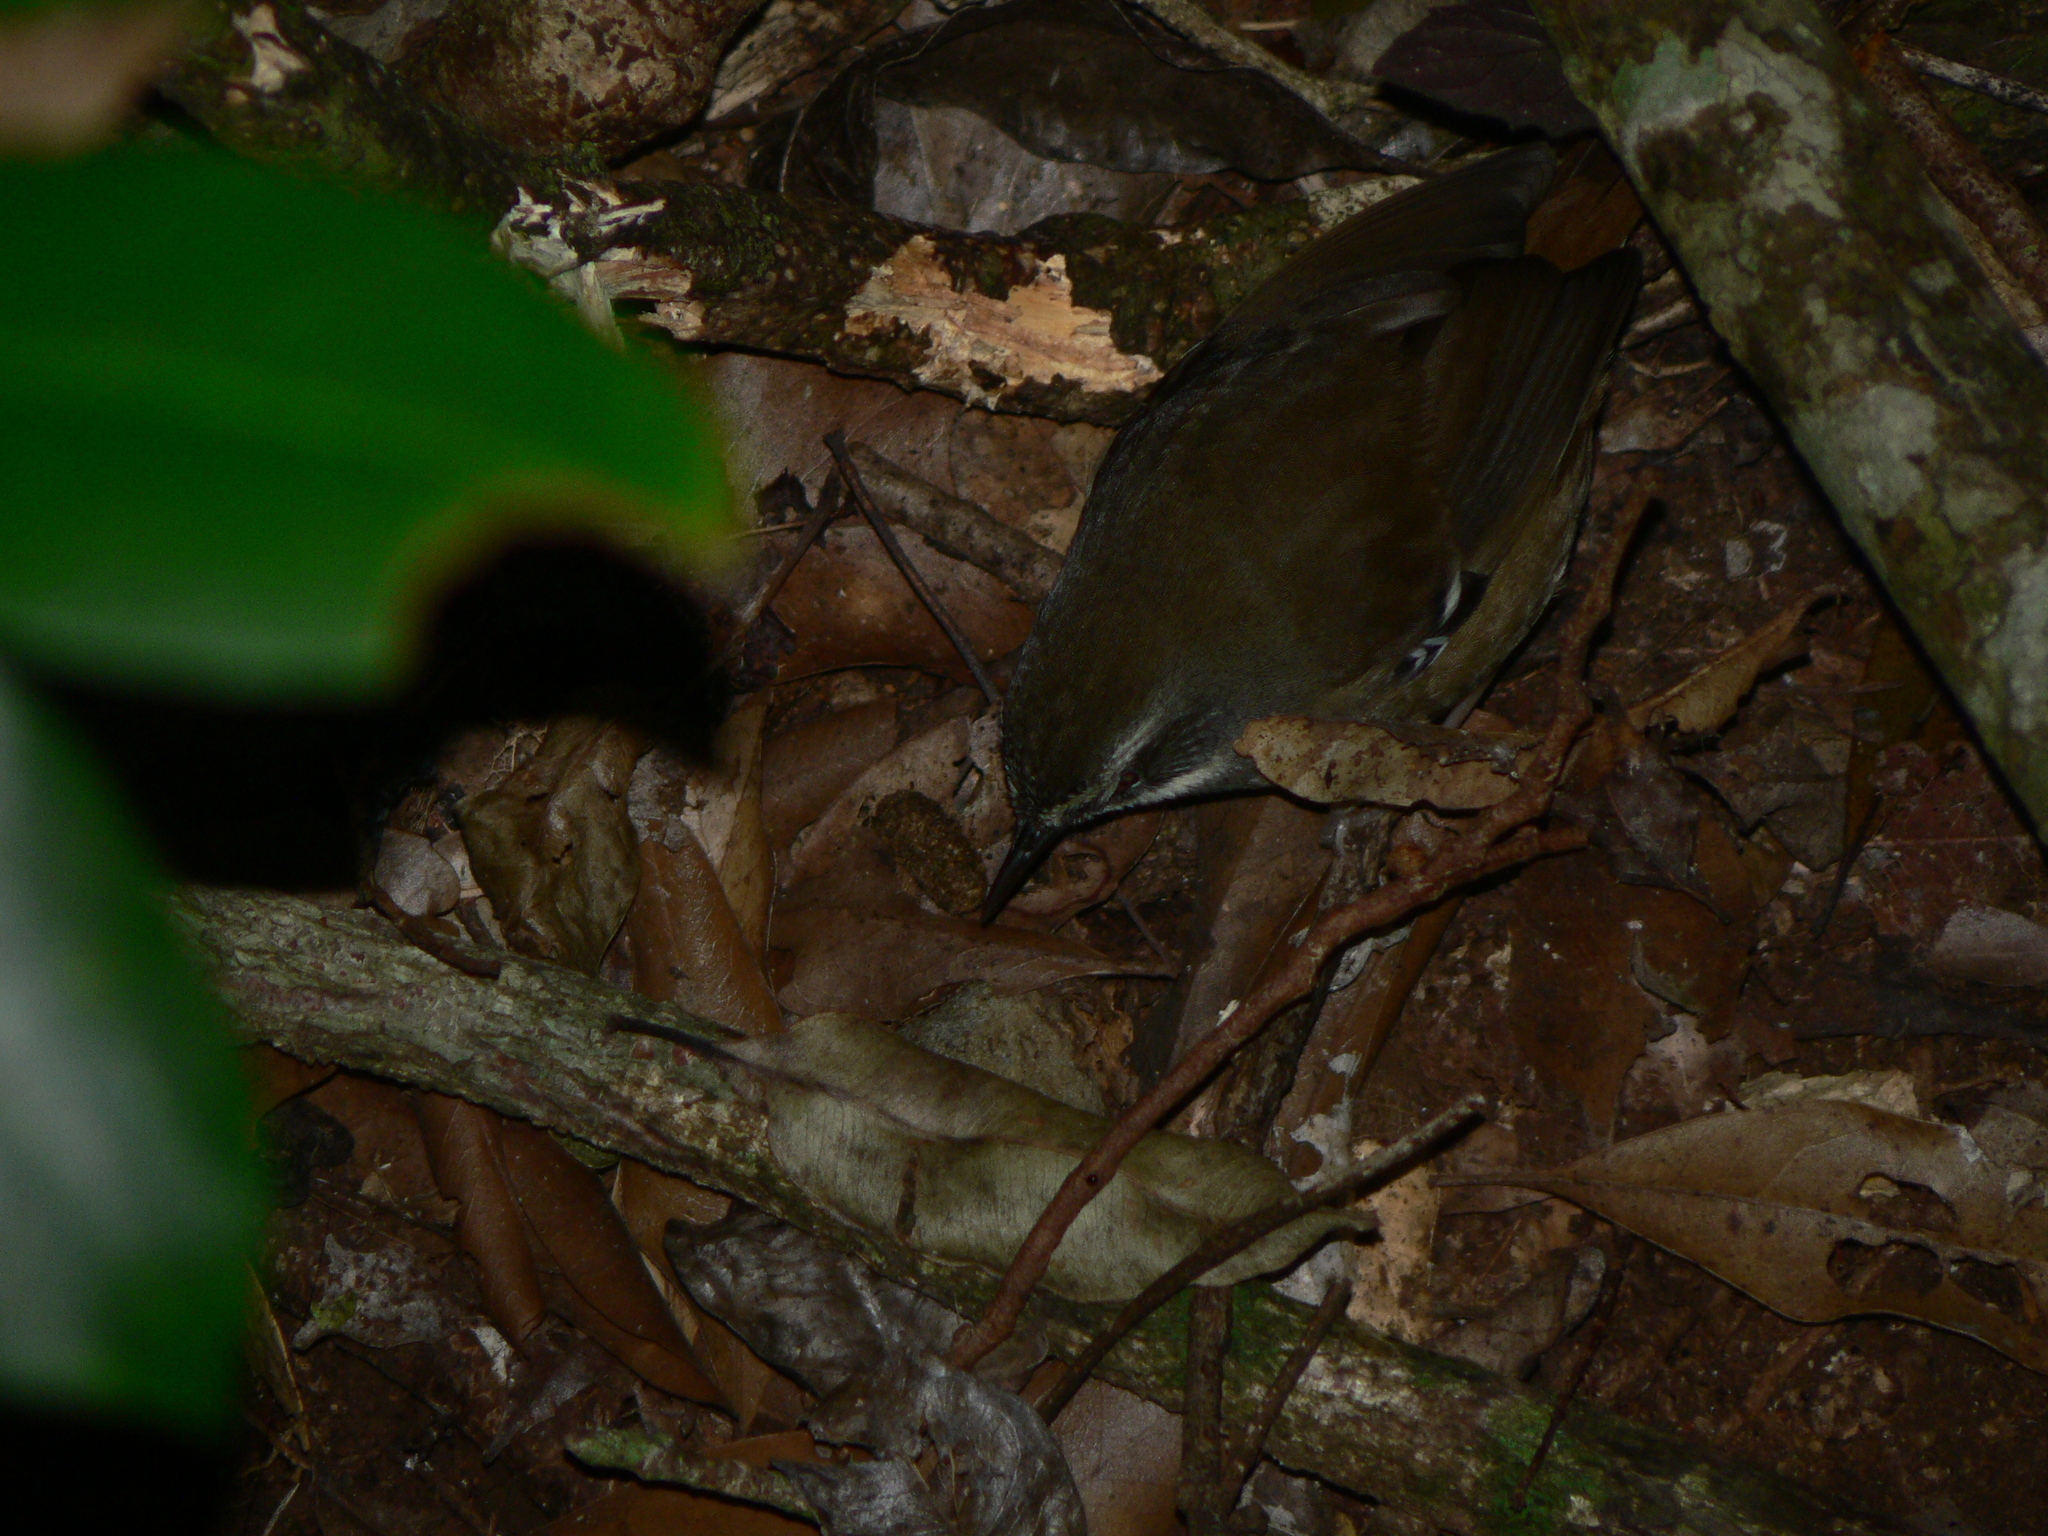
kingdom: Animalia
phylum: Chordata
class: Aves
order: Passeriformes
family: Acanthizidae
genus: Sericornis
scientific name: Sericornis frontalis
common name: White-browed scrubwren
